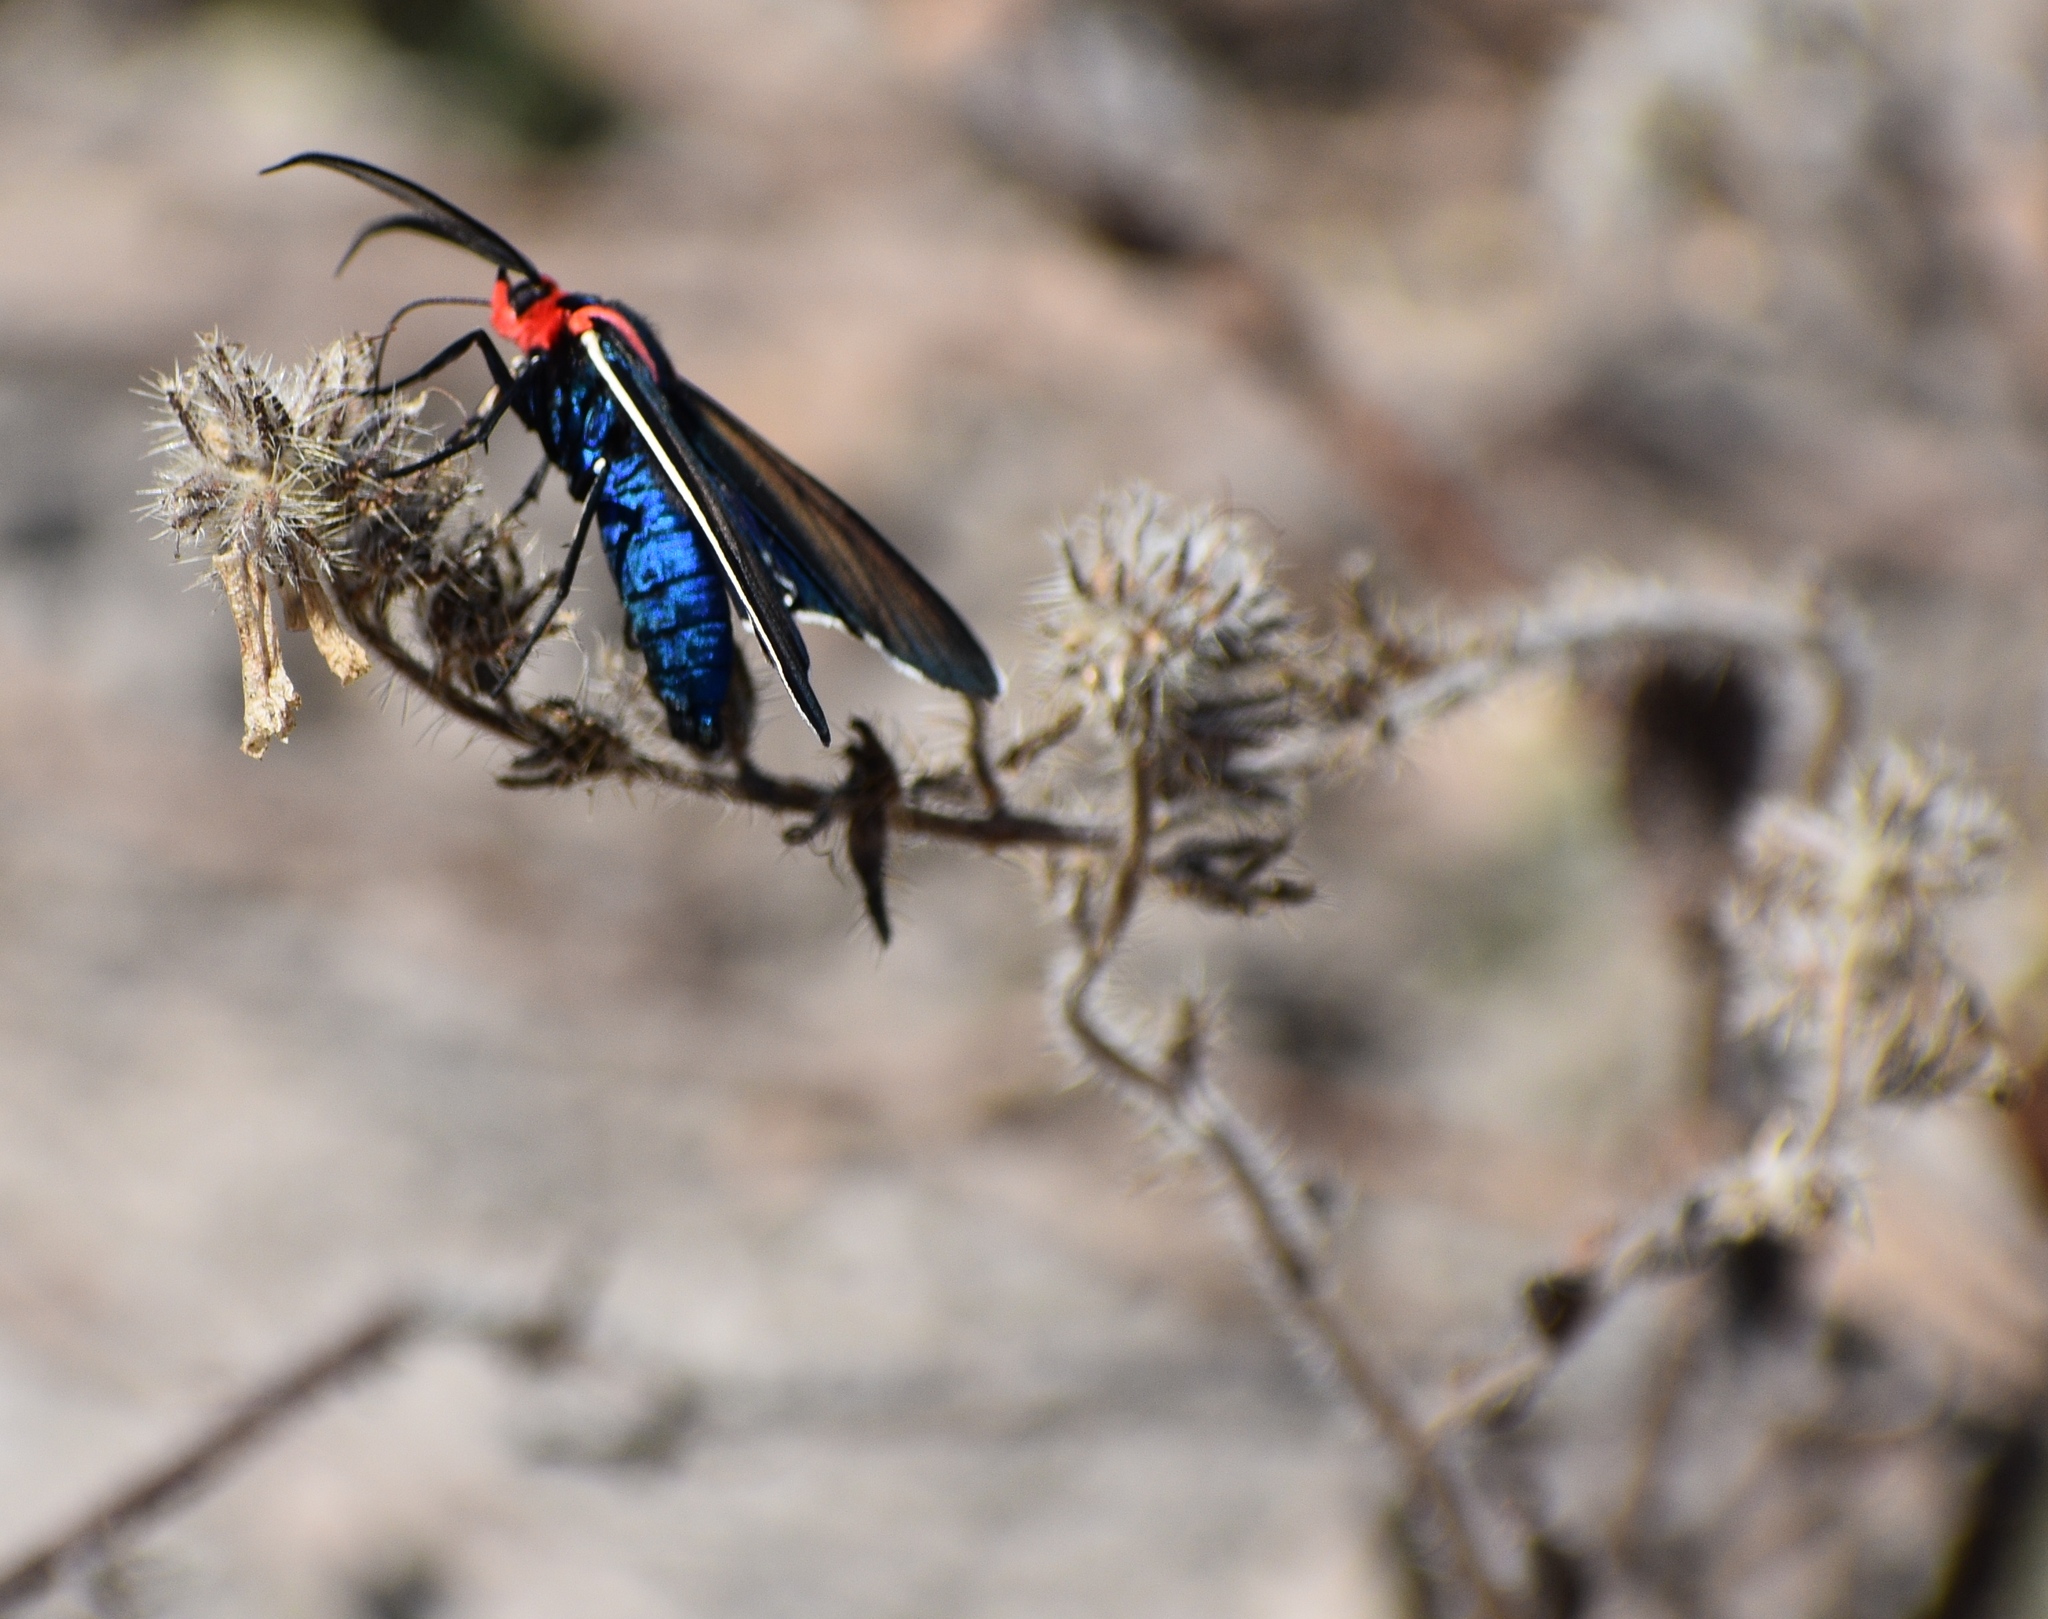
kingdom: Animalia
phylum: Arthropoda
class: Insecta
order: Lepidoptera
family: Erebidae
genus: Ctenucha
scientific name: Ctenucha brunnea
